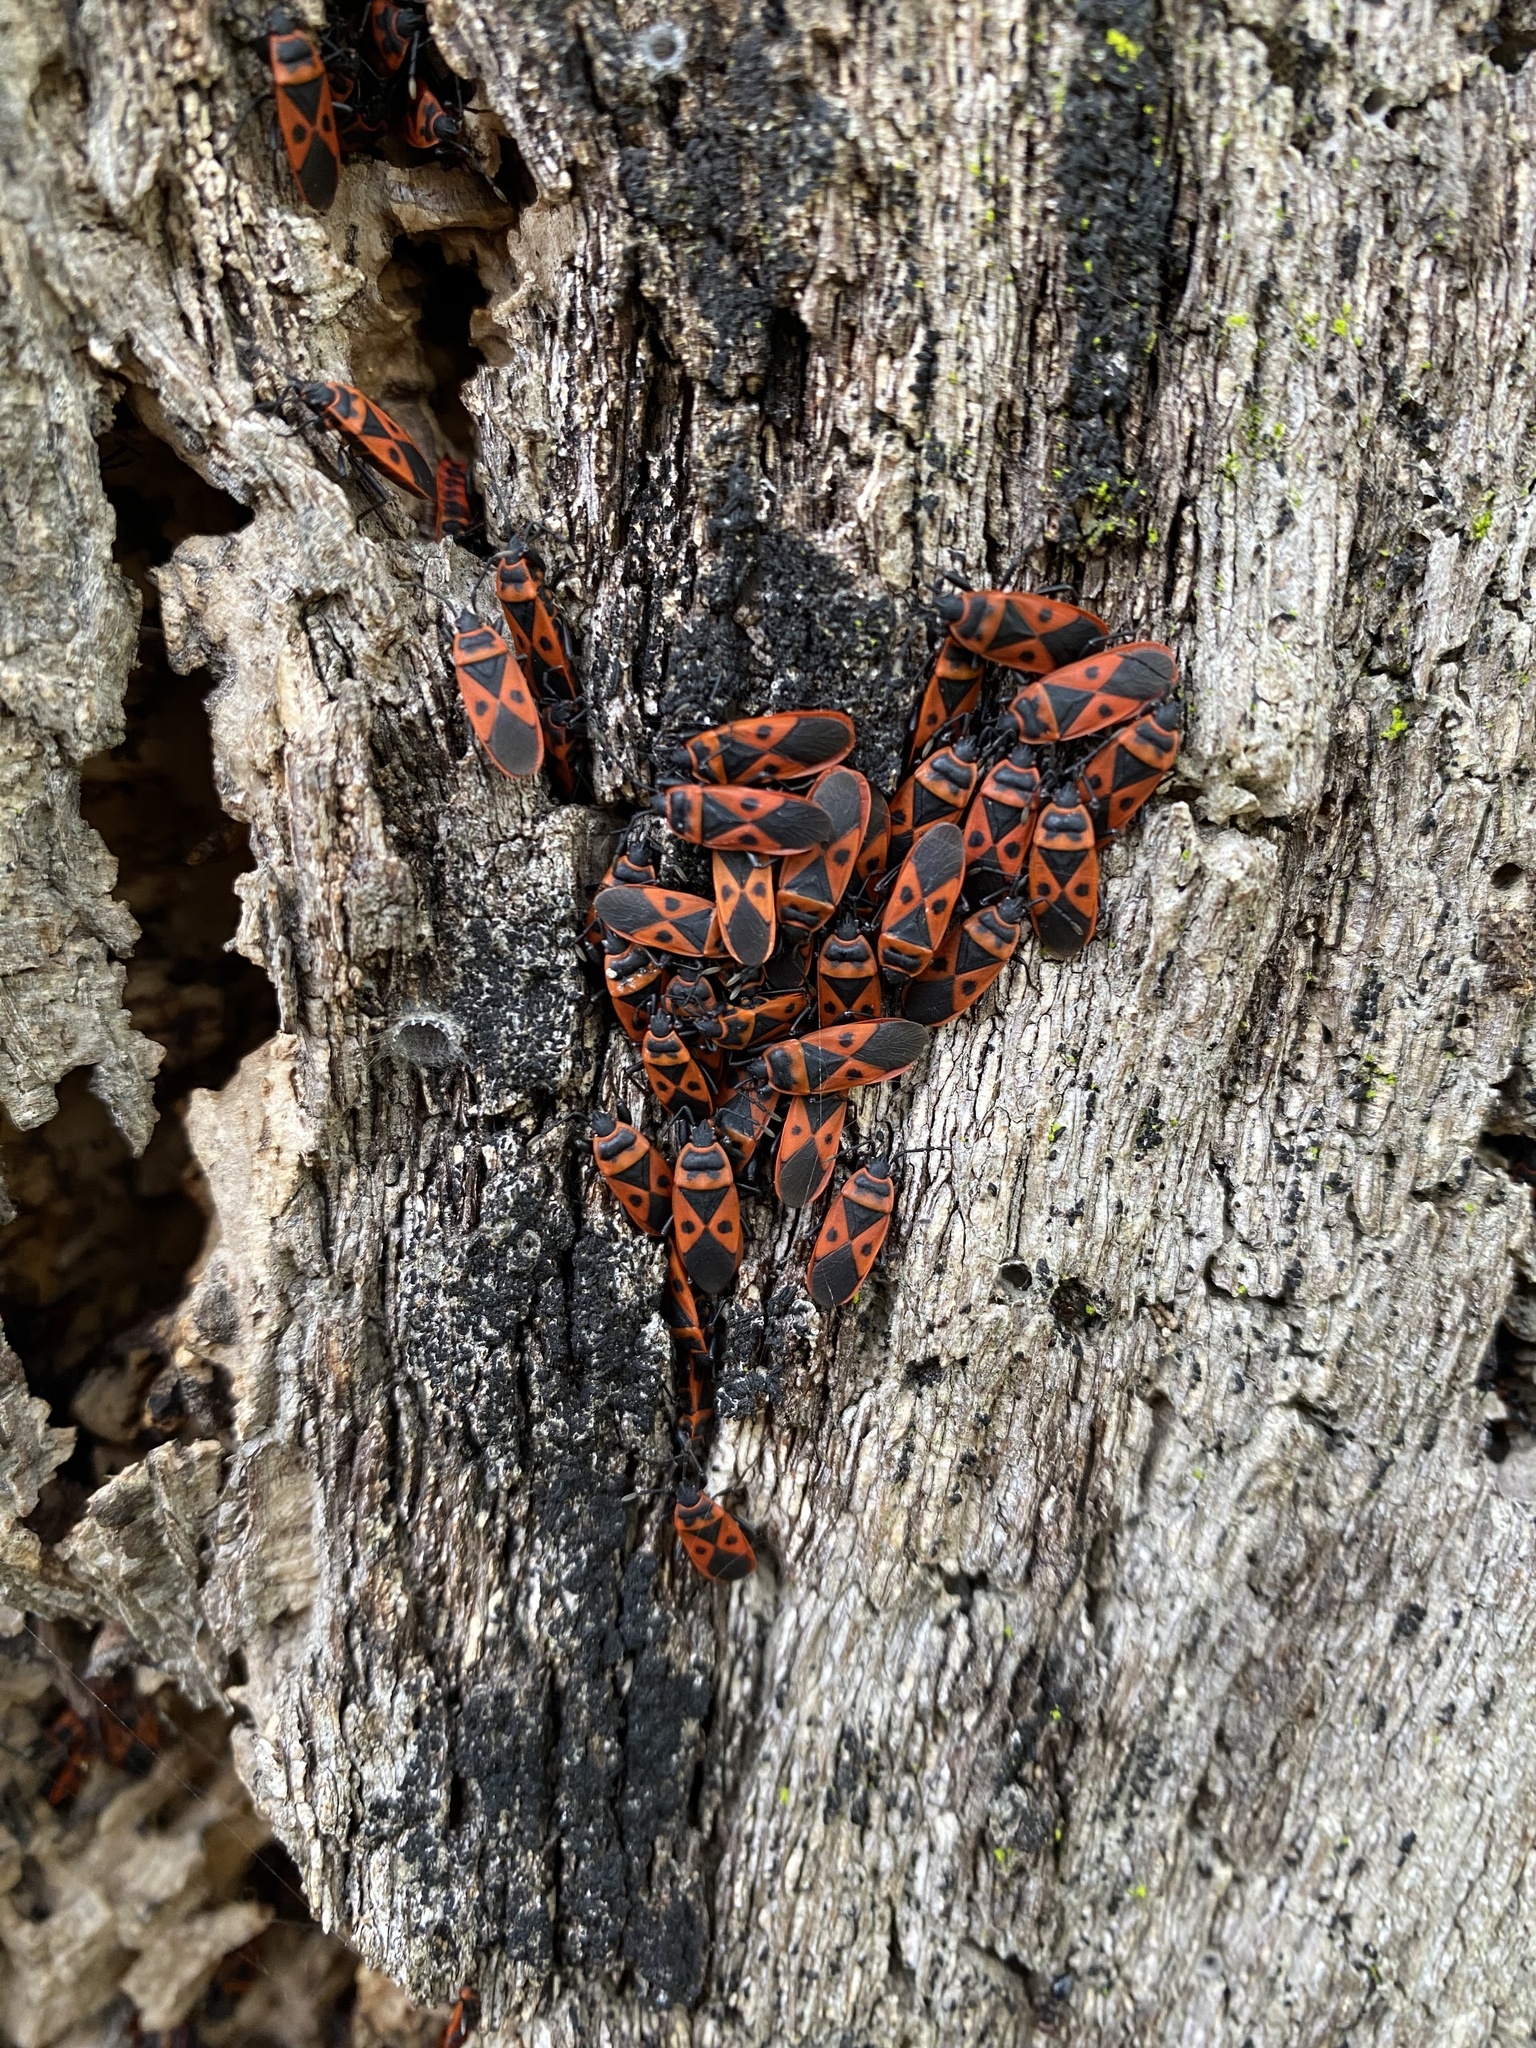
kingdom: Animalia
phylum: Arthropoda
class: Insecta
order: Hemiptera
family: Pyrrhocoridae
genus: Scantius
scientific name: Scantius aegyptius
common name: Red bug
